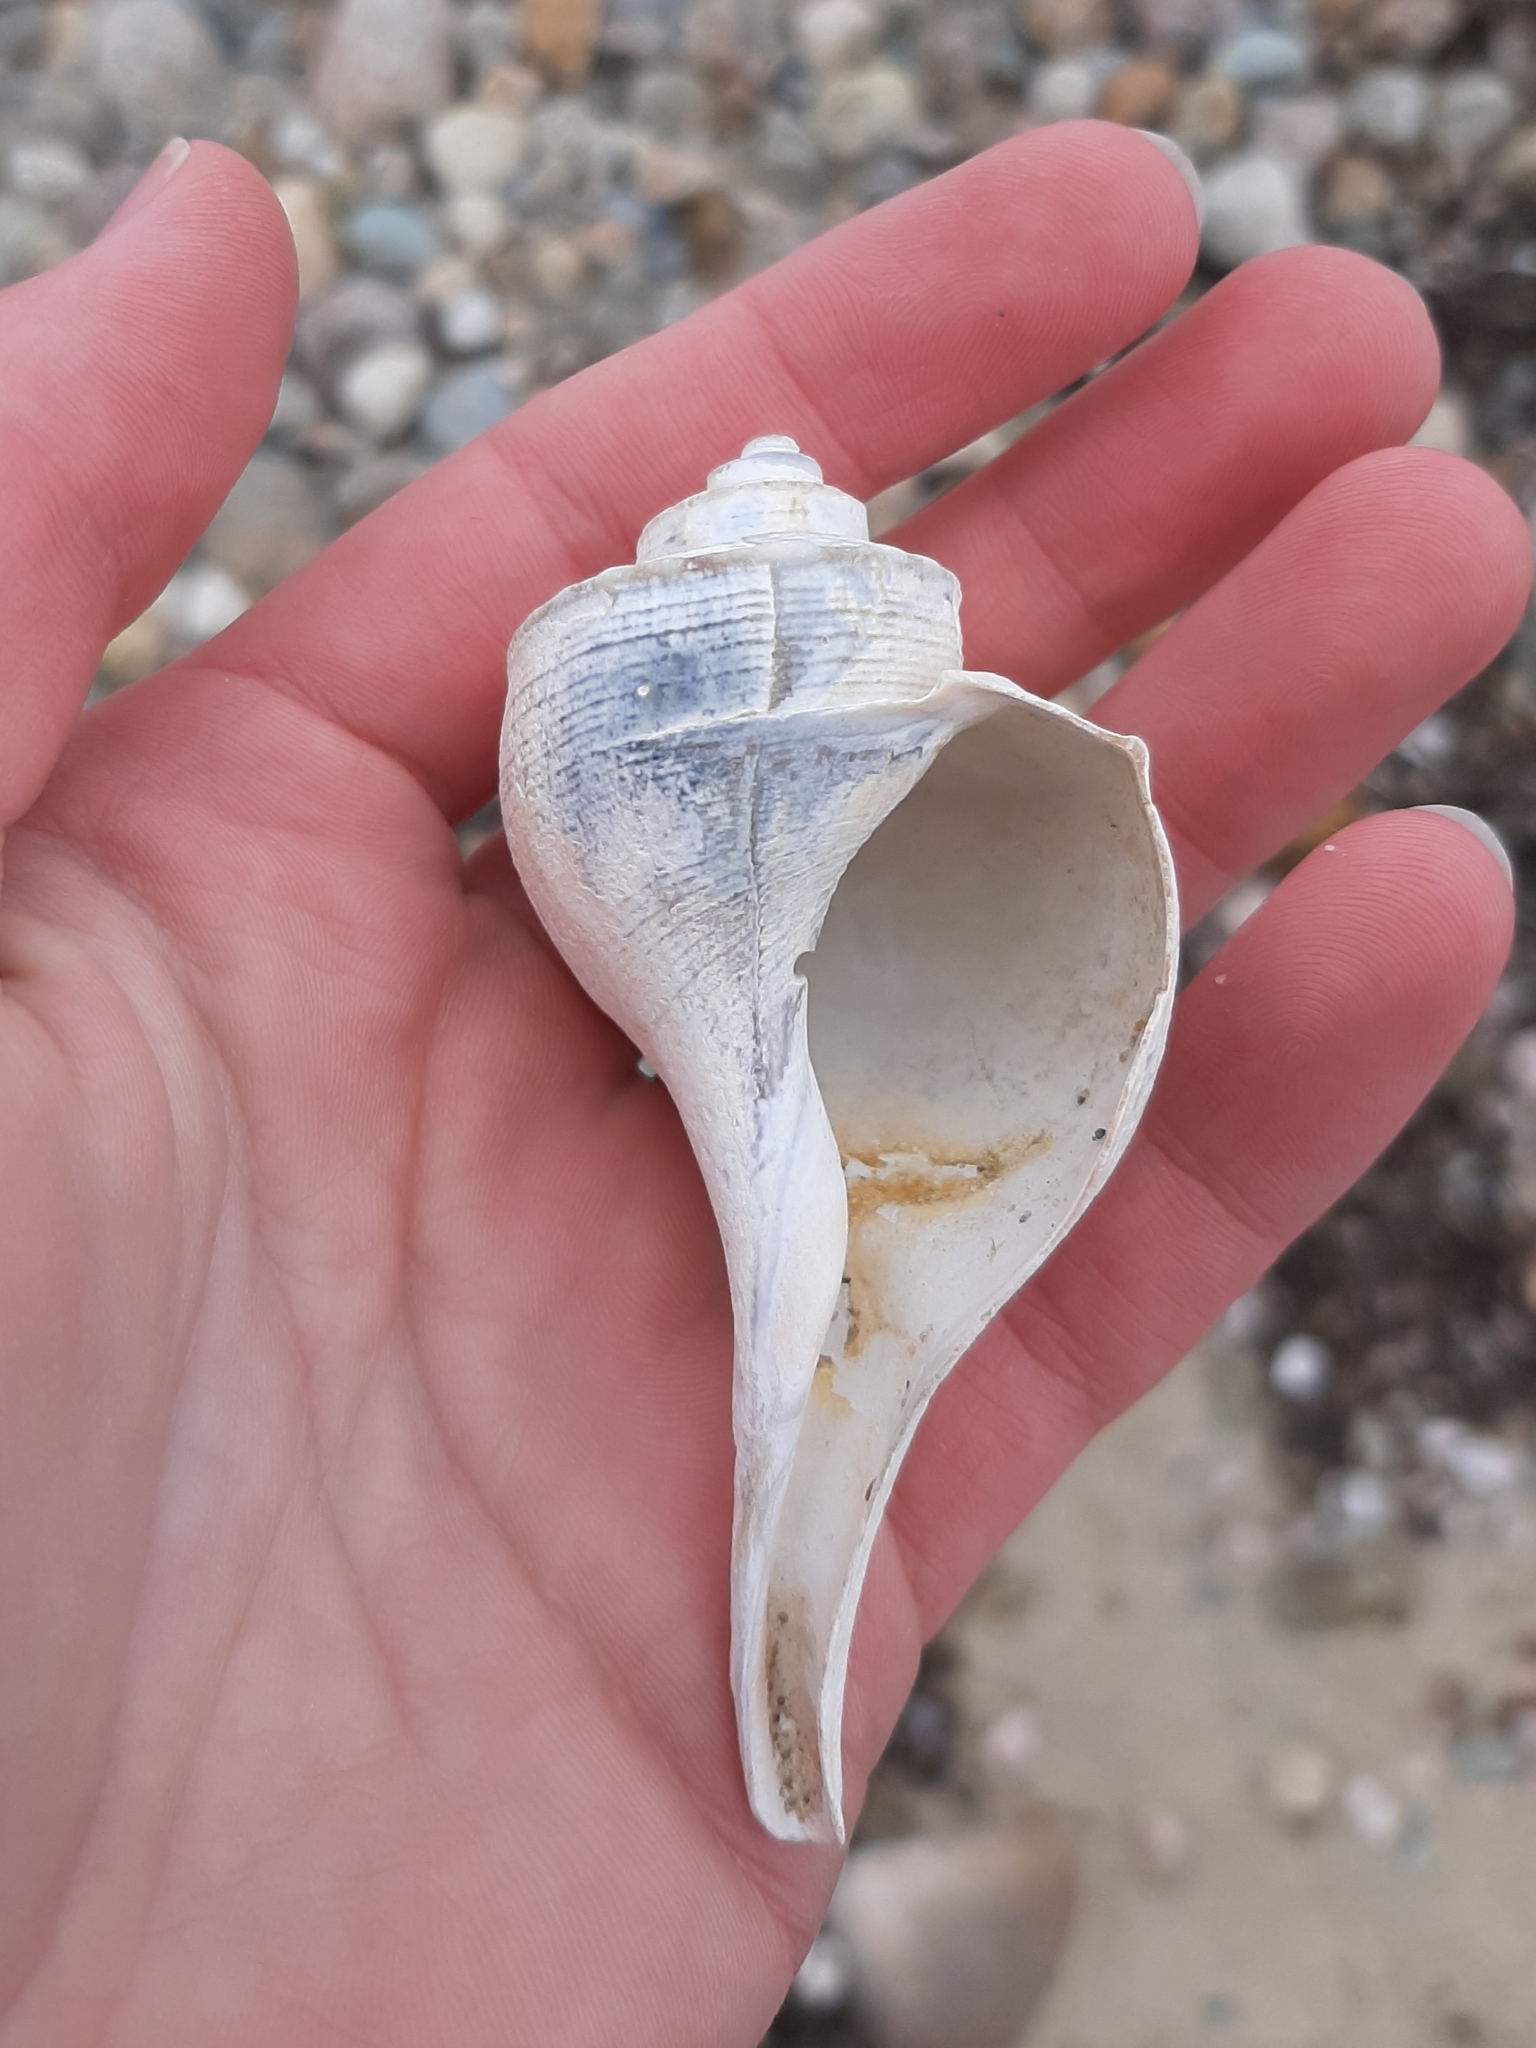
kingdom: Animalia
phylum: Mollusca
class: Gastropoda
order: Neogastropoda
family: Busyconidae
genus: Busycotypus
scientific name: Busycotypus canaliculatus
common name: Channeled whelk
